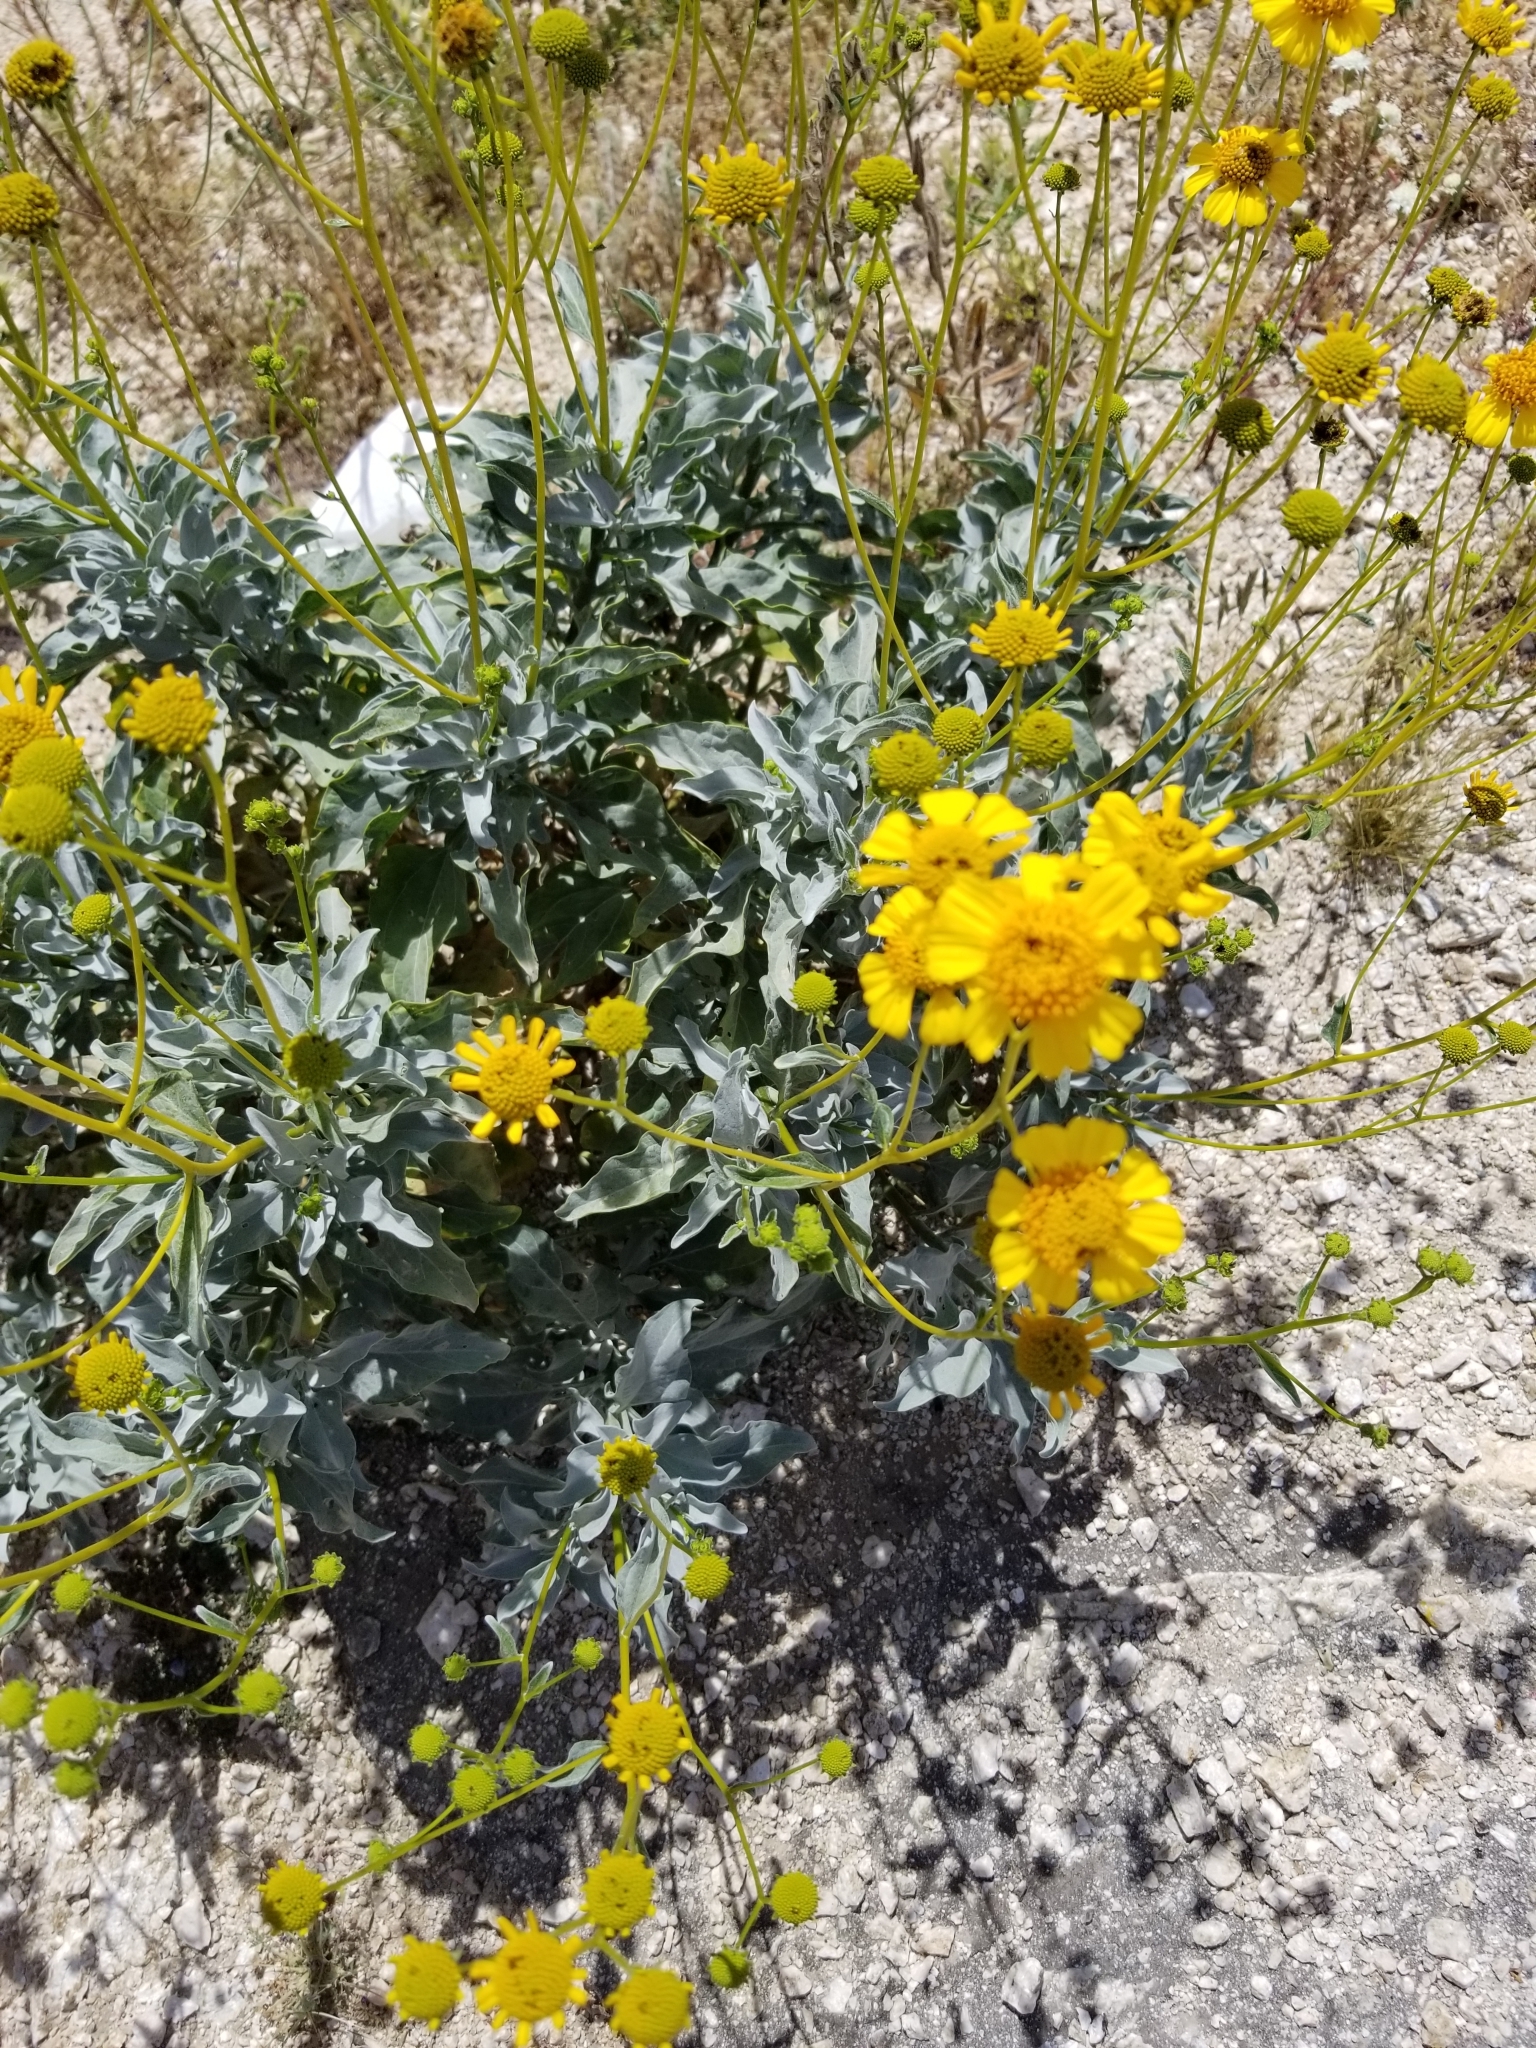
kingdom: Plantae
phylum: Tracheophyta
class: Magnoliopsida
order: Asterales
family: Asteraceae
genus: Encelia
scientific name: Encelia farinosa
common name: Brittlebush
